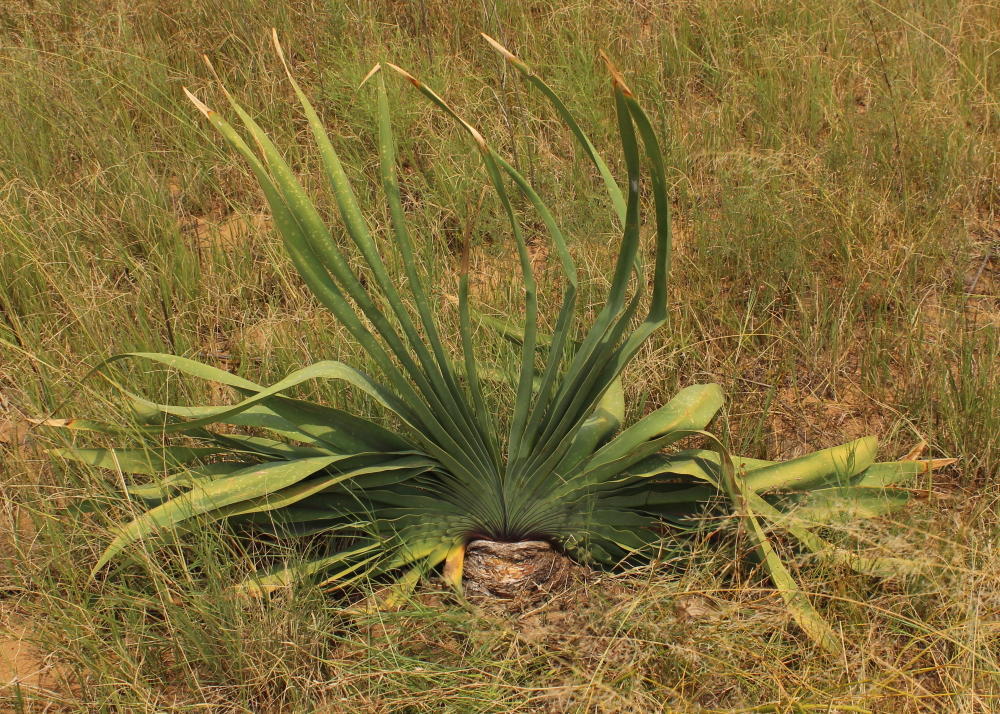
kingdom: Plantae
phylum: Tracheophyta
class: Liliopsida
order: Asparagales
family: Amaryllidaceae
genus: Boophone
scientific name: Boophone disticha
